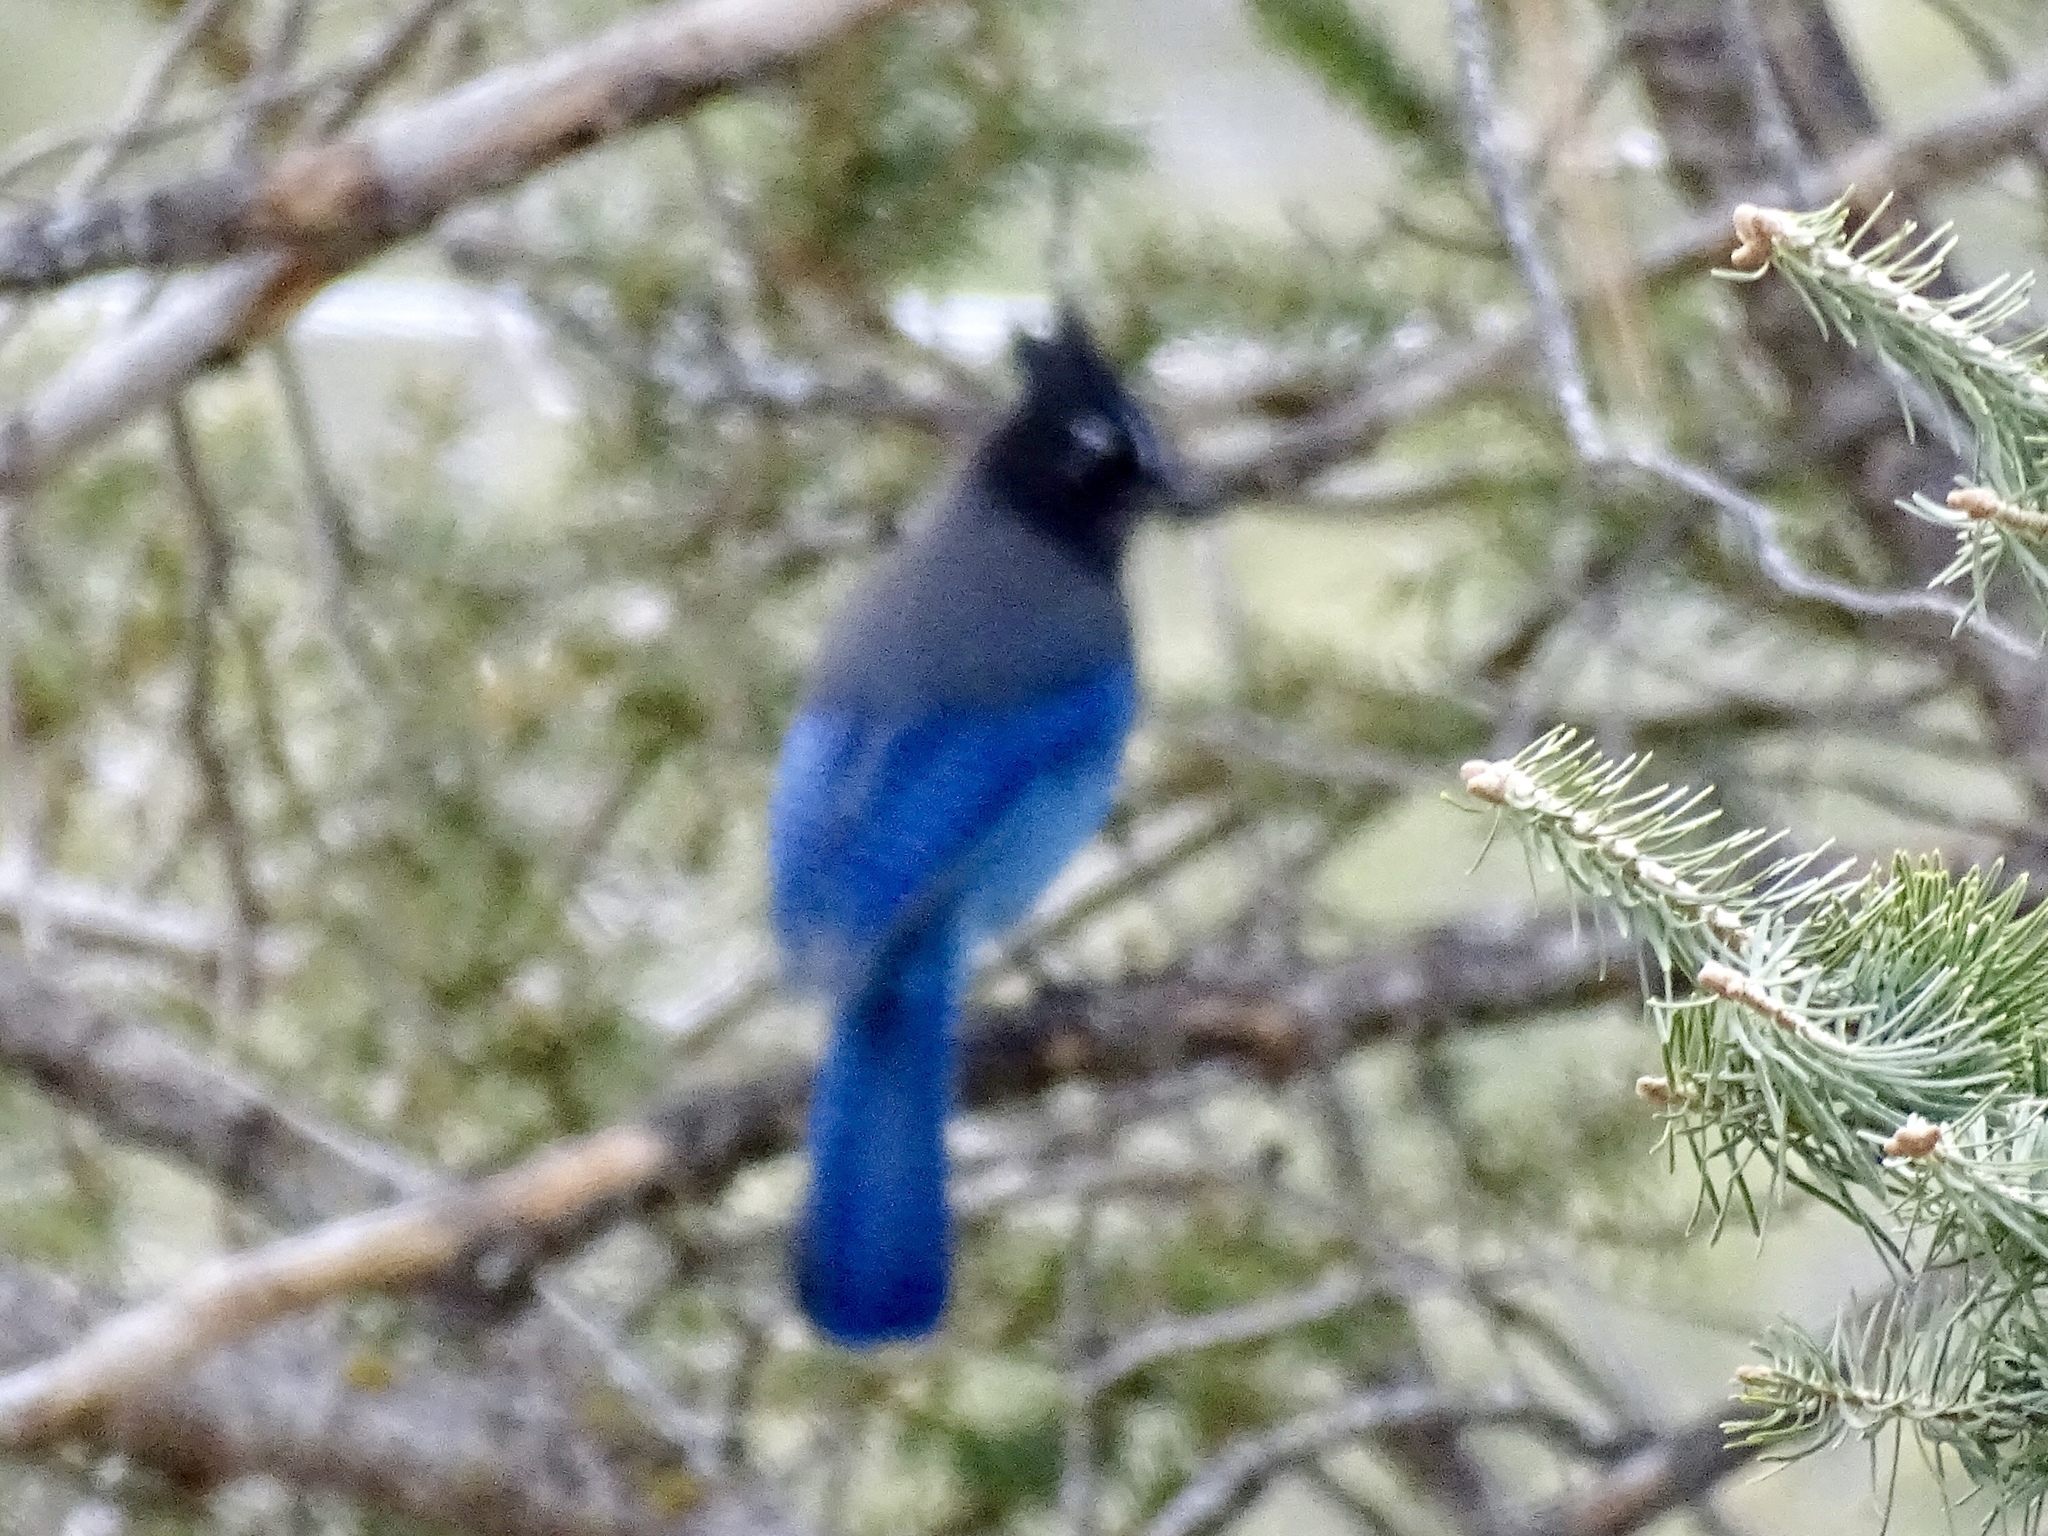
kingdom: Animalia
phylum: Chordata
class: Aves
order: Passeriformes
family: Corvidae
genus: Cyanocitta
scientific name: Cyanocitta stelleri
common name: Steller's jay
